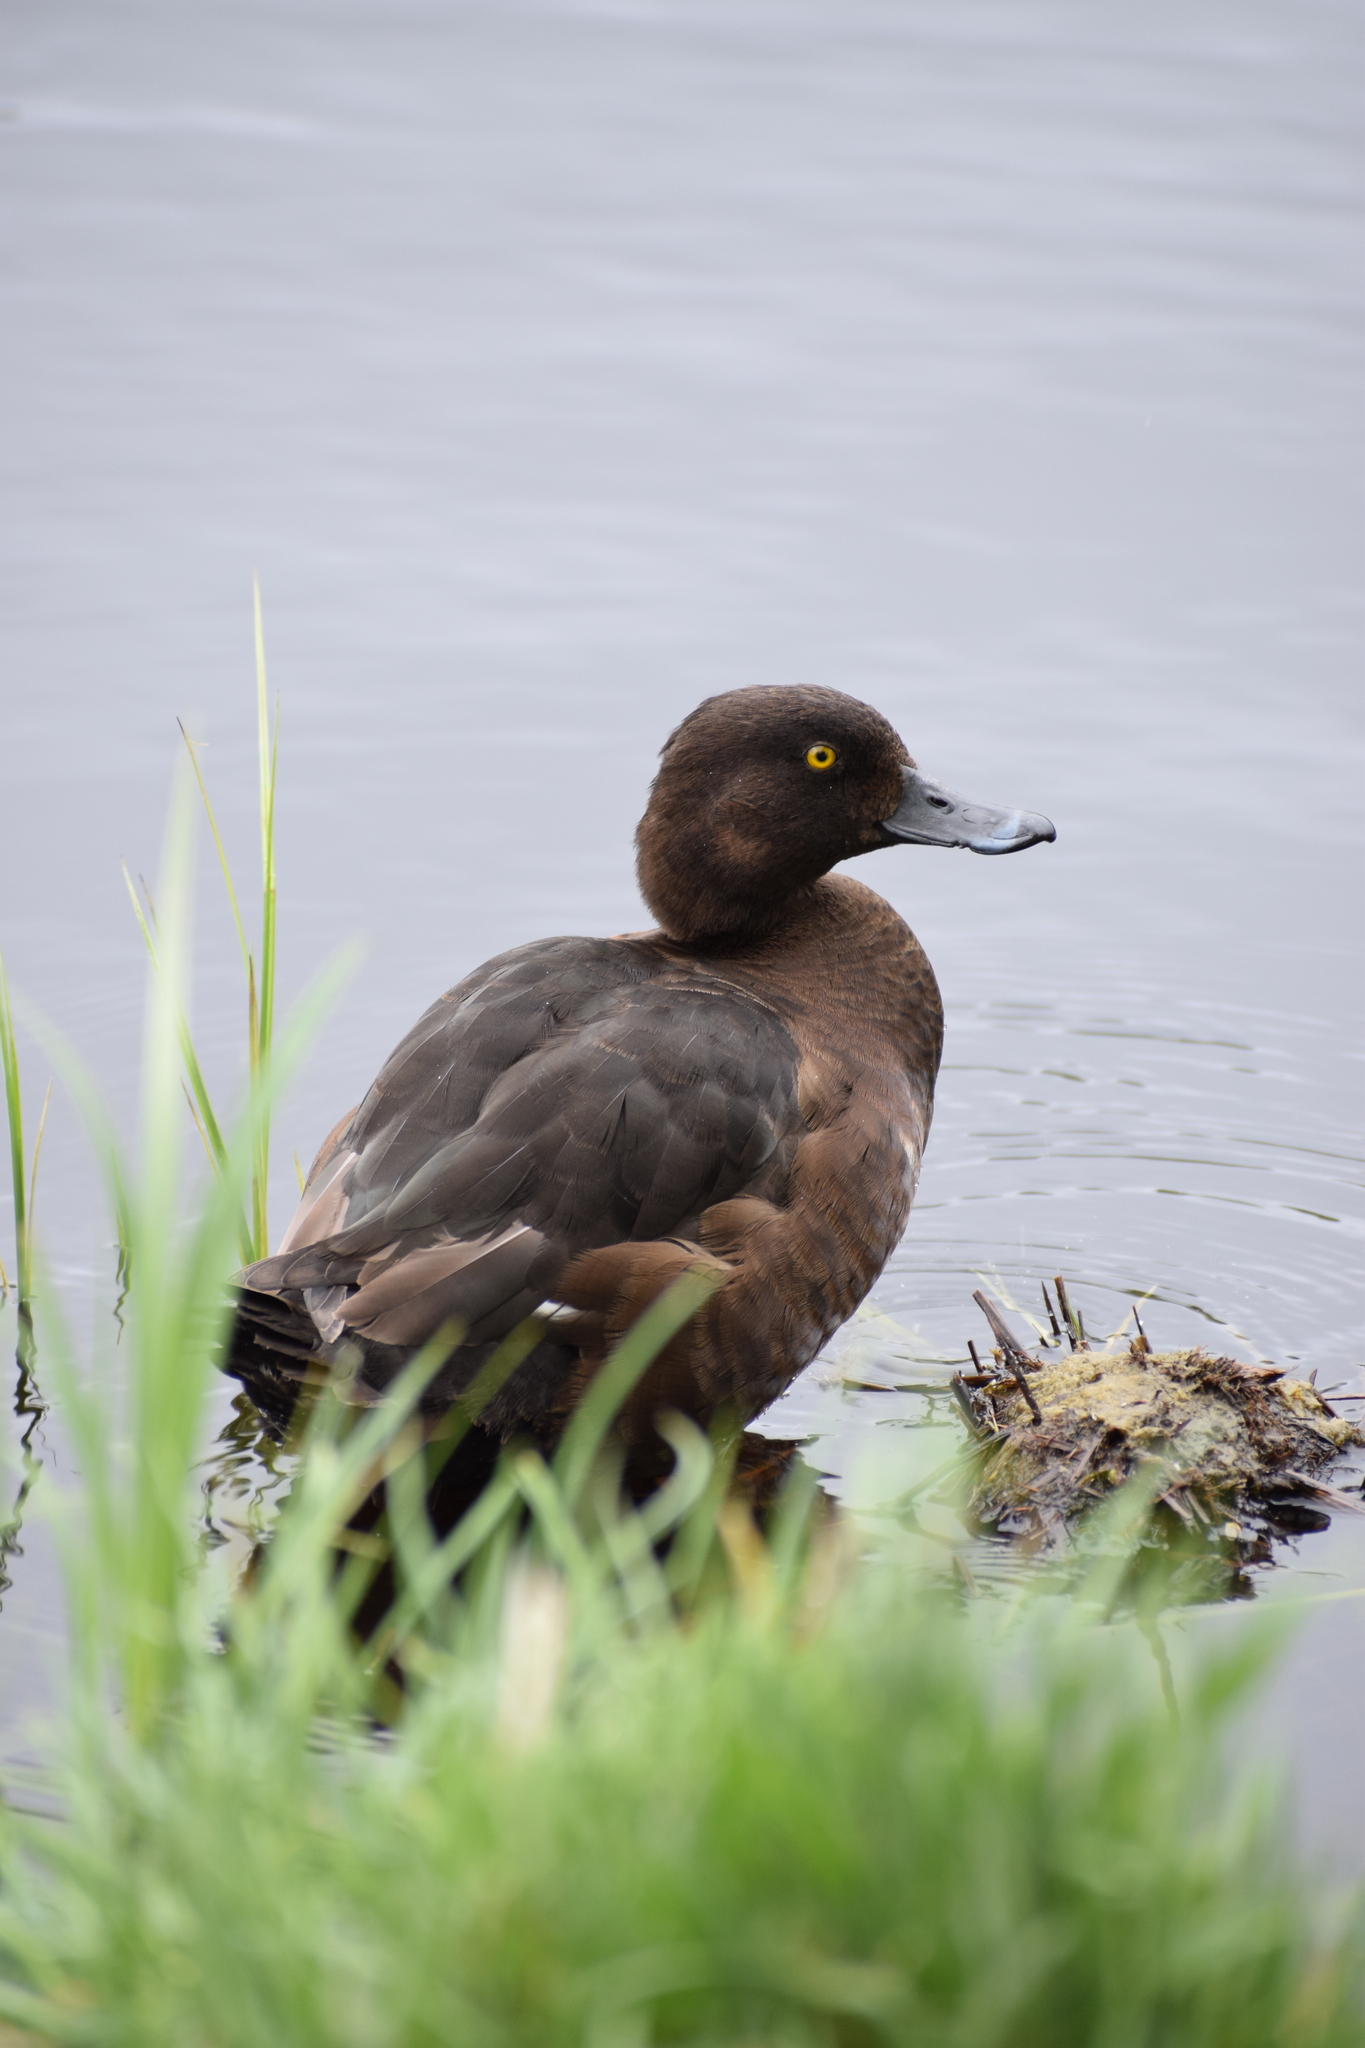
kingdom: Animalia
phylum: Chordata
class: Aves
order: Anseriformes
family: Anatidae
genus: Aythya
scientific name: Aythya fuligula
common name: Tufted duck
